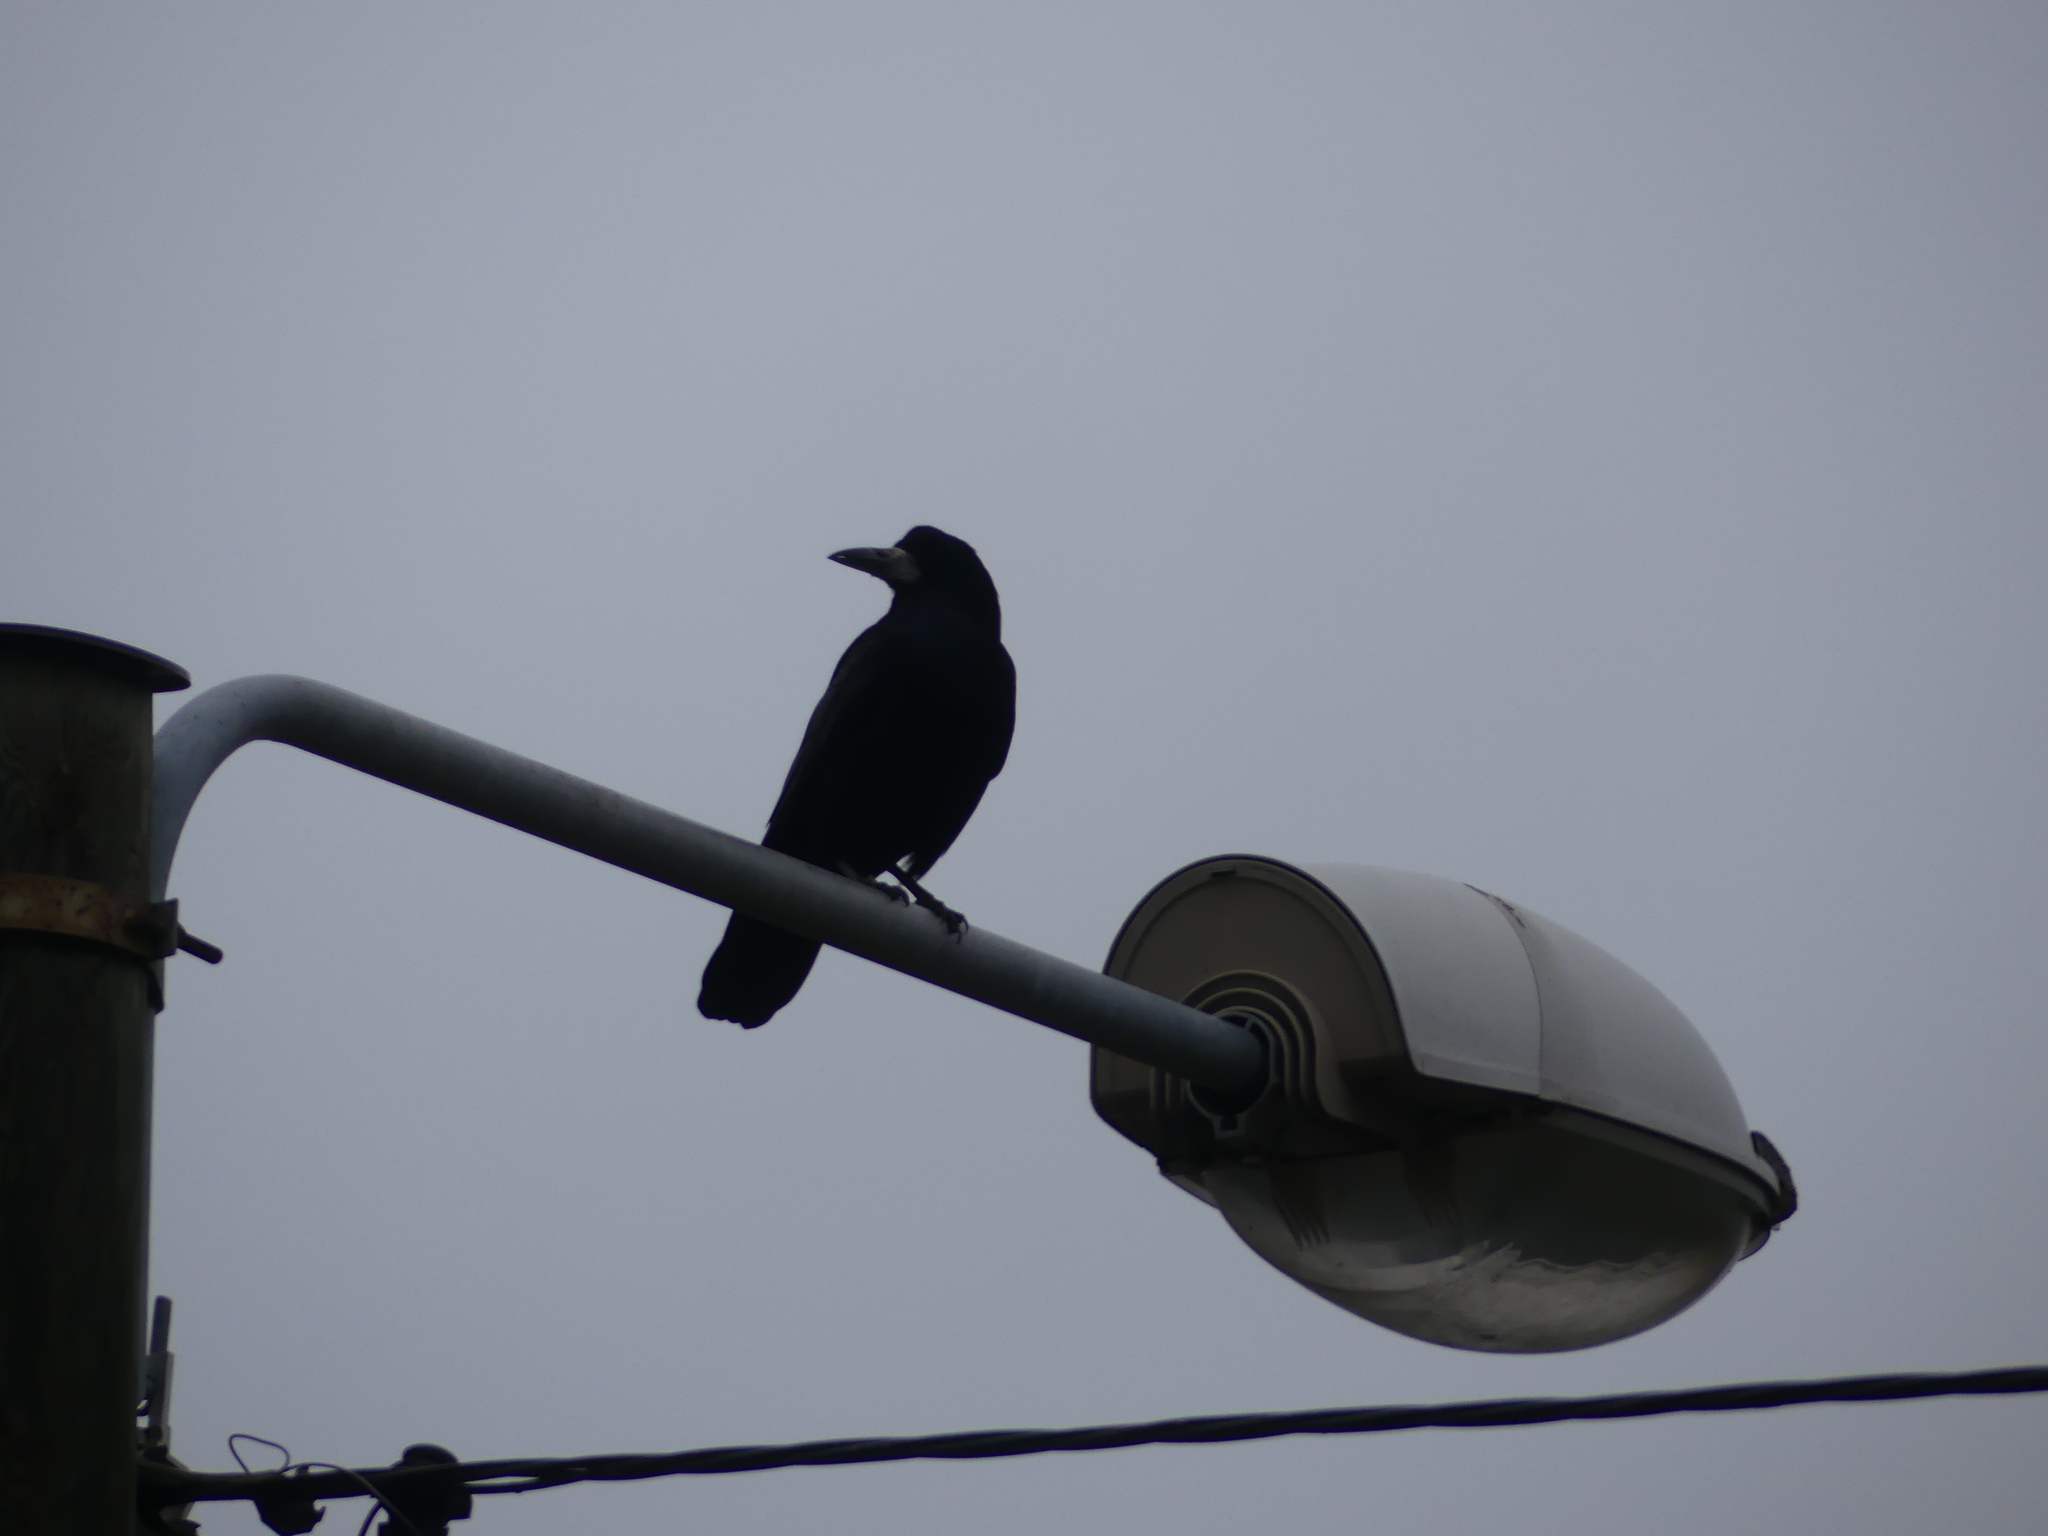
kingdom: Animalia
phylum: Chordata
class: Aves
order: Passeriformes
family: Corvidae
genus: Corvus
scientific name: Corvus frugilegus
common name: Rook
